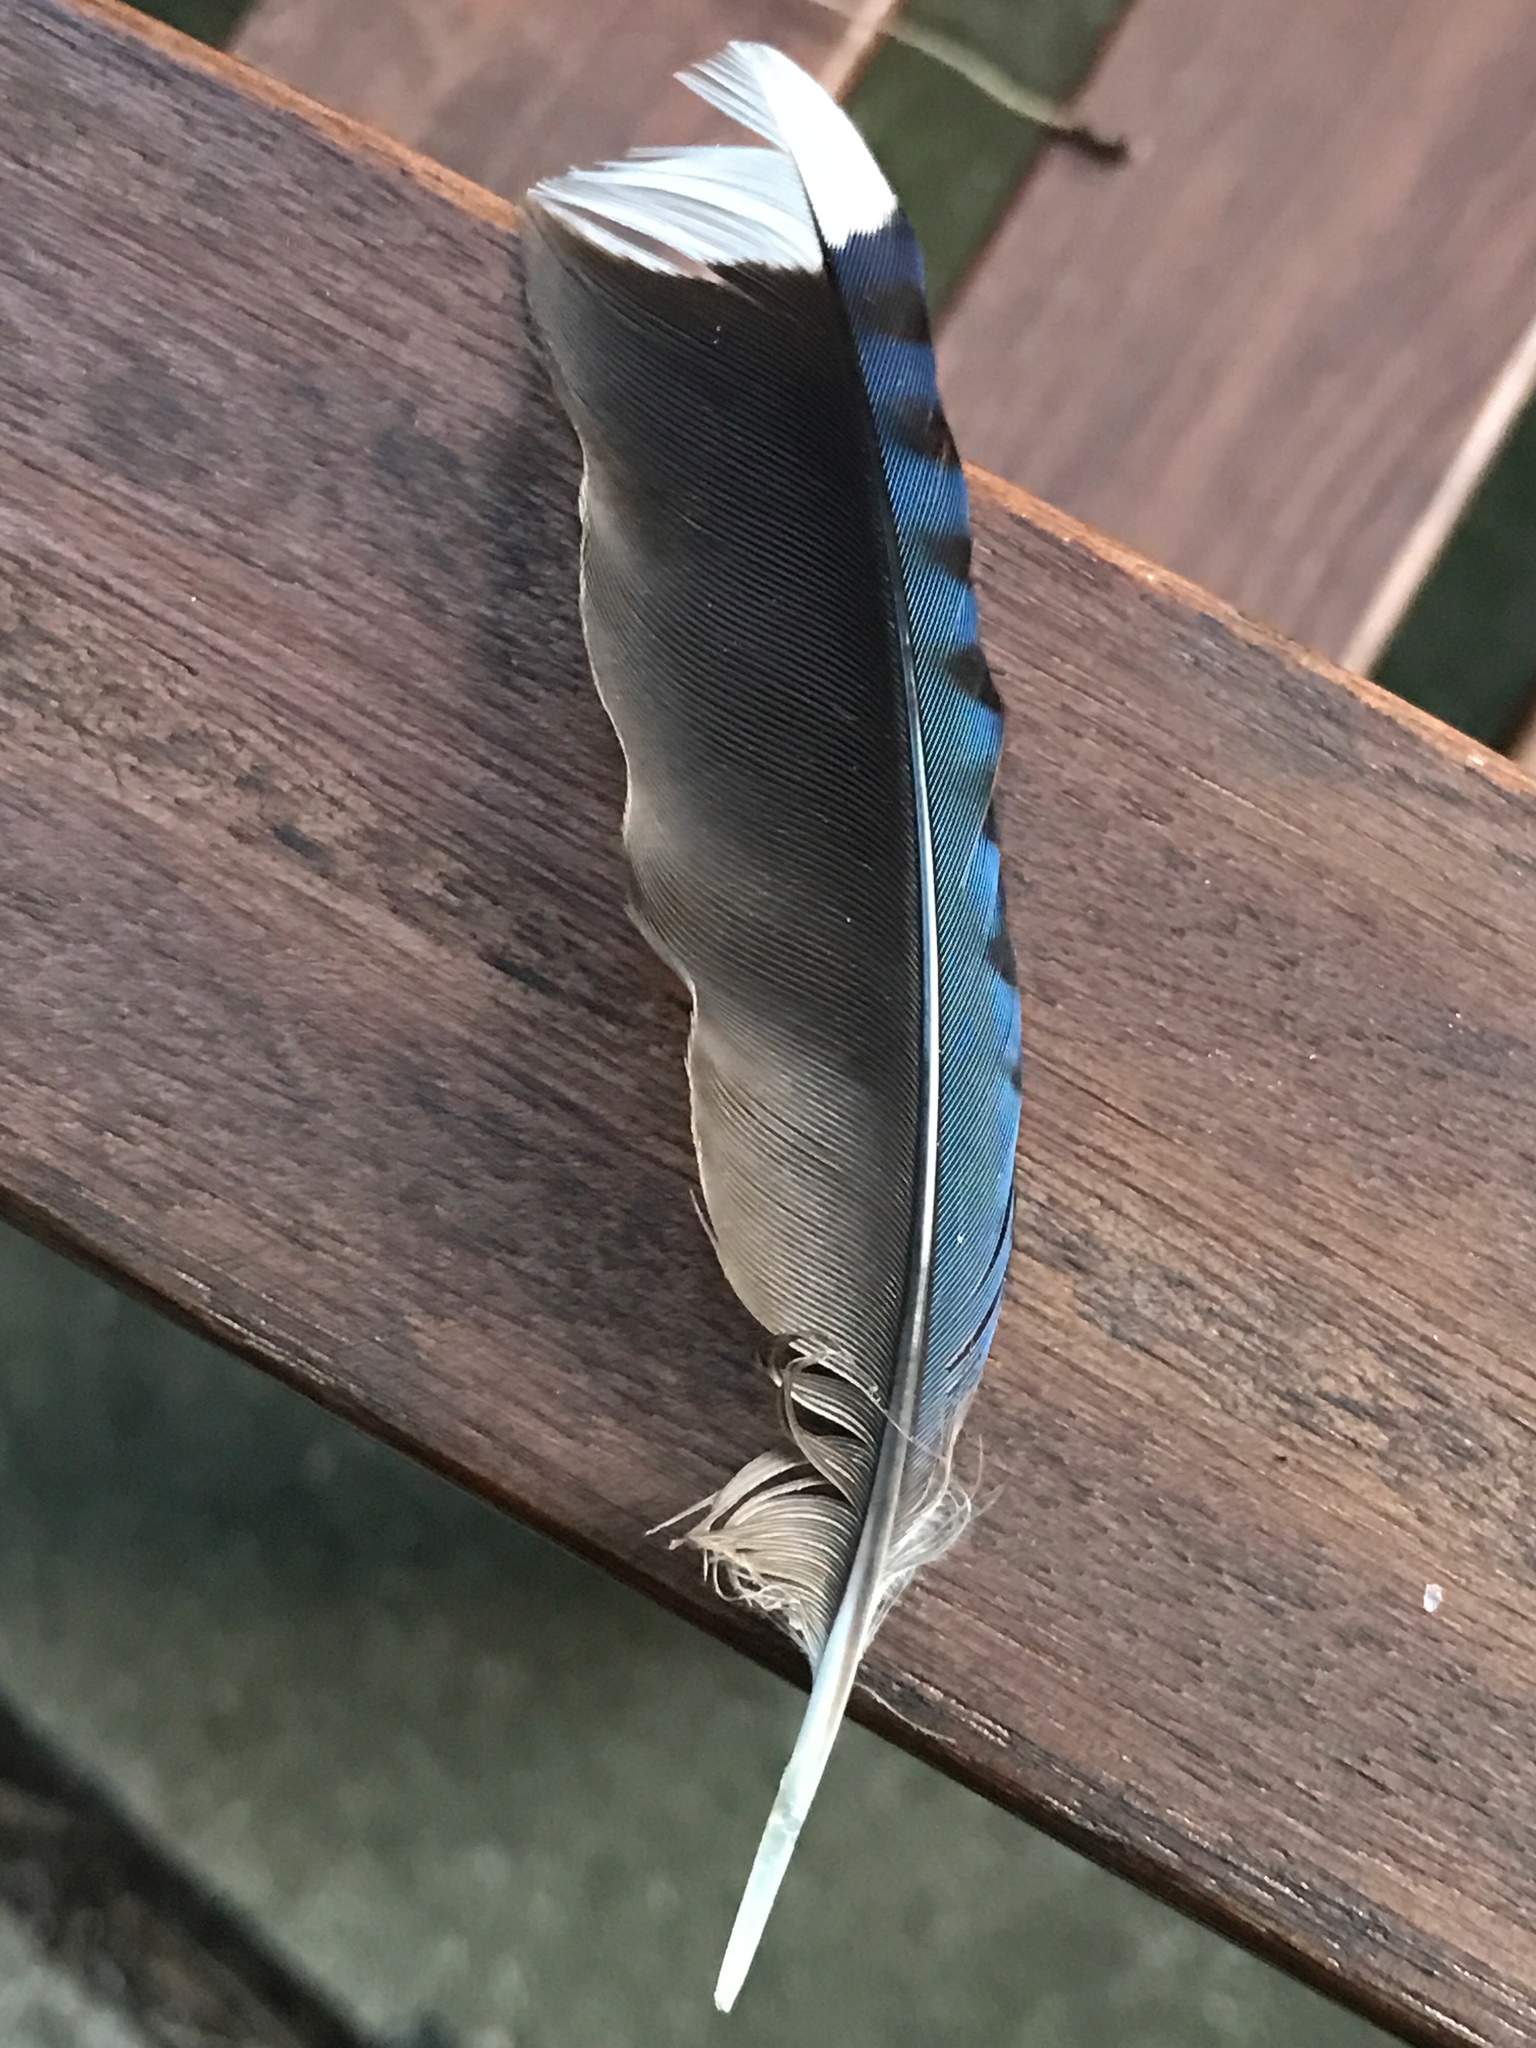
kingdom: Animalia
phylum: Chordata
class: Aves
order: Passeriformes
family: Corvidae
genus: Cyanocitta
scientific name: Cyanocitta cristata
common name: Blue jay
